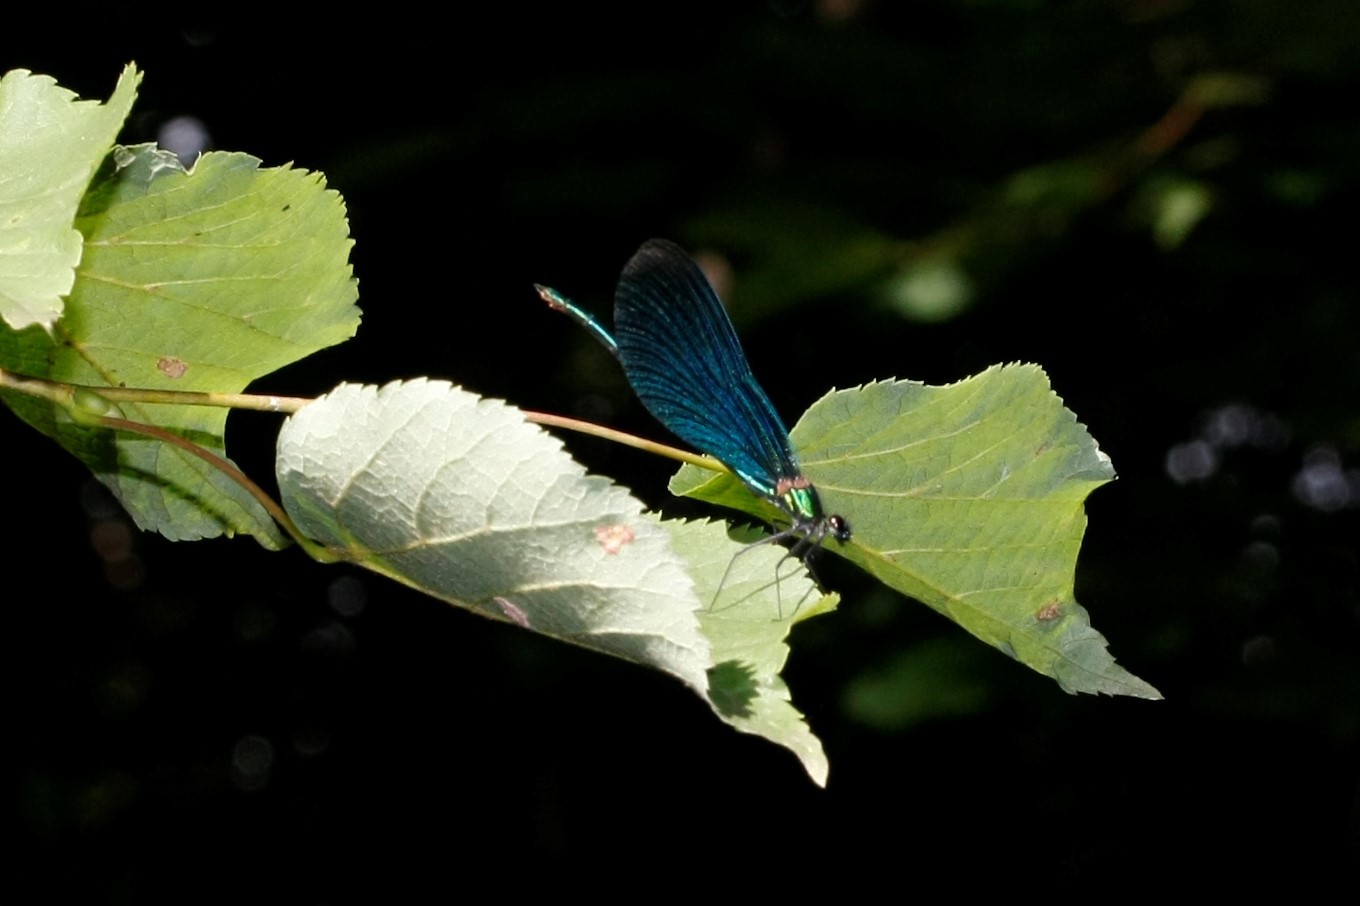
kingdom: Animalia
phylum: Arthropoda
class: Insecta
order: Odonata
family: Calopterygidae
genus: Calopteryx
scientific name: Calopteryx virgo
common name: Beautiful demoiselle
